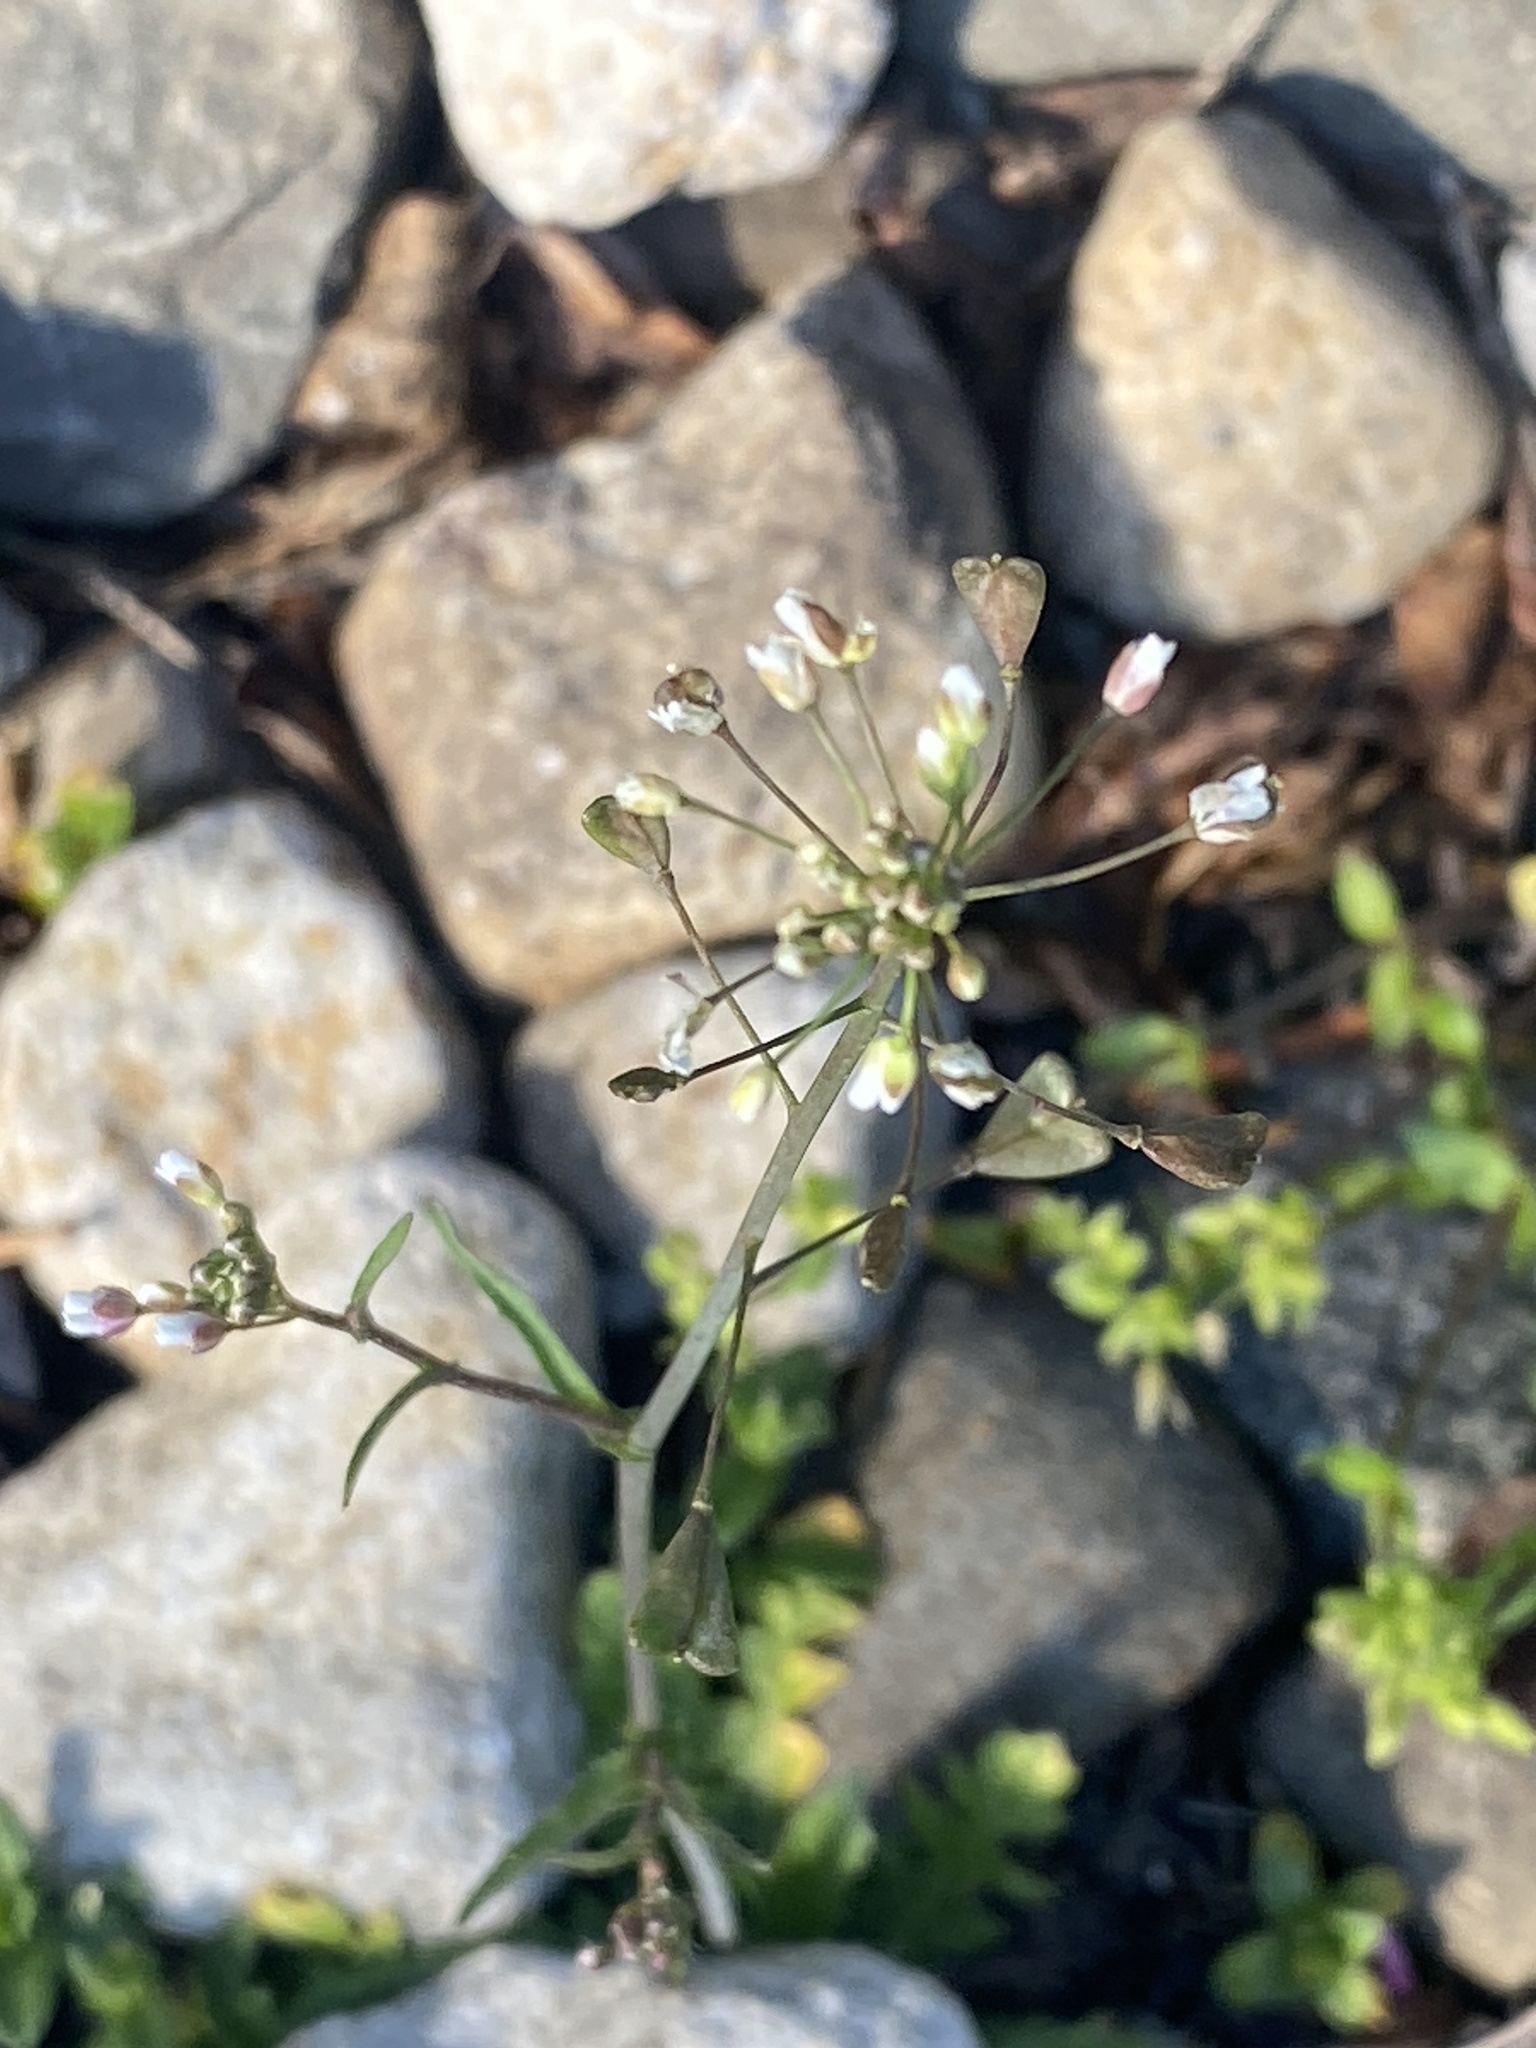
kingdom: Plantae
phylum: Tracheophyta
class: Magnoliopsida
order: Brassicales
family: Brassicaceae
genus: Capsella
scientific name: Capsella bursa-pastoris
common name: Shepherd's purse
